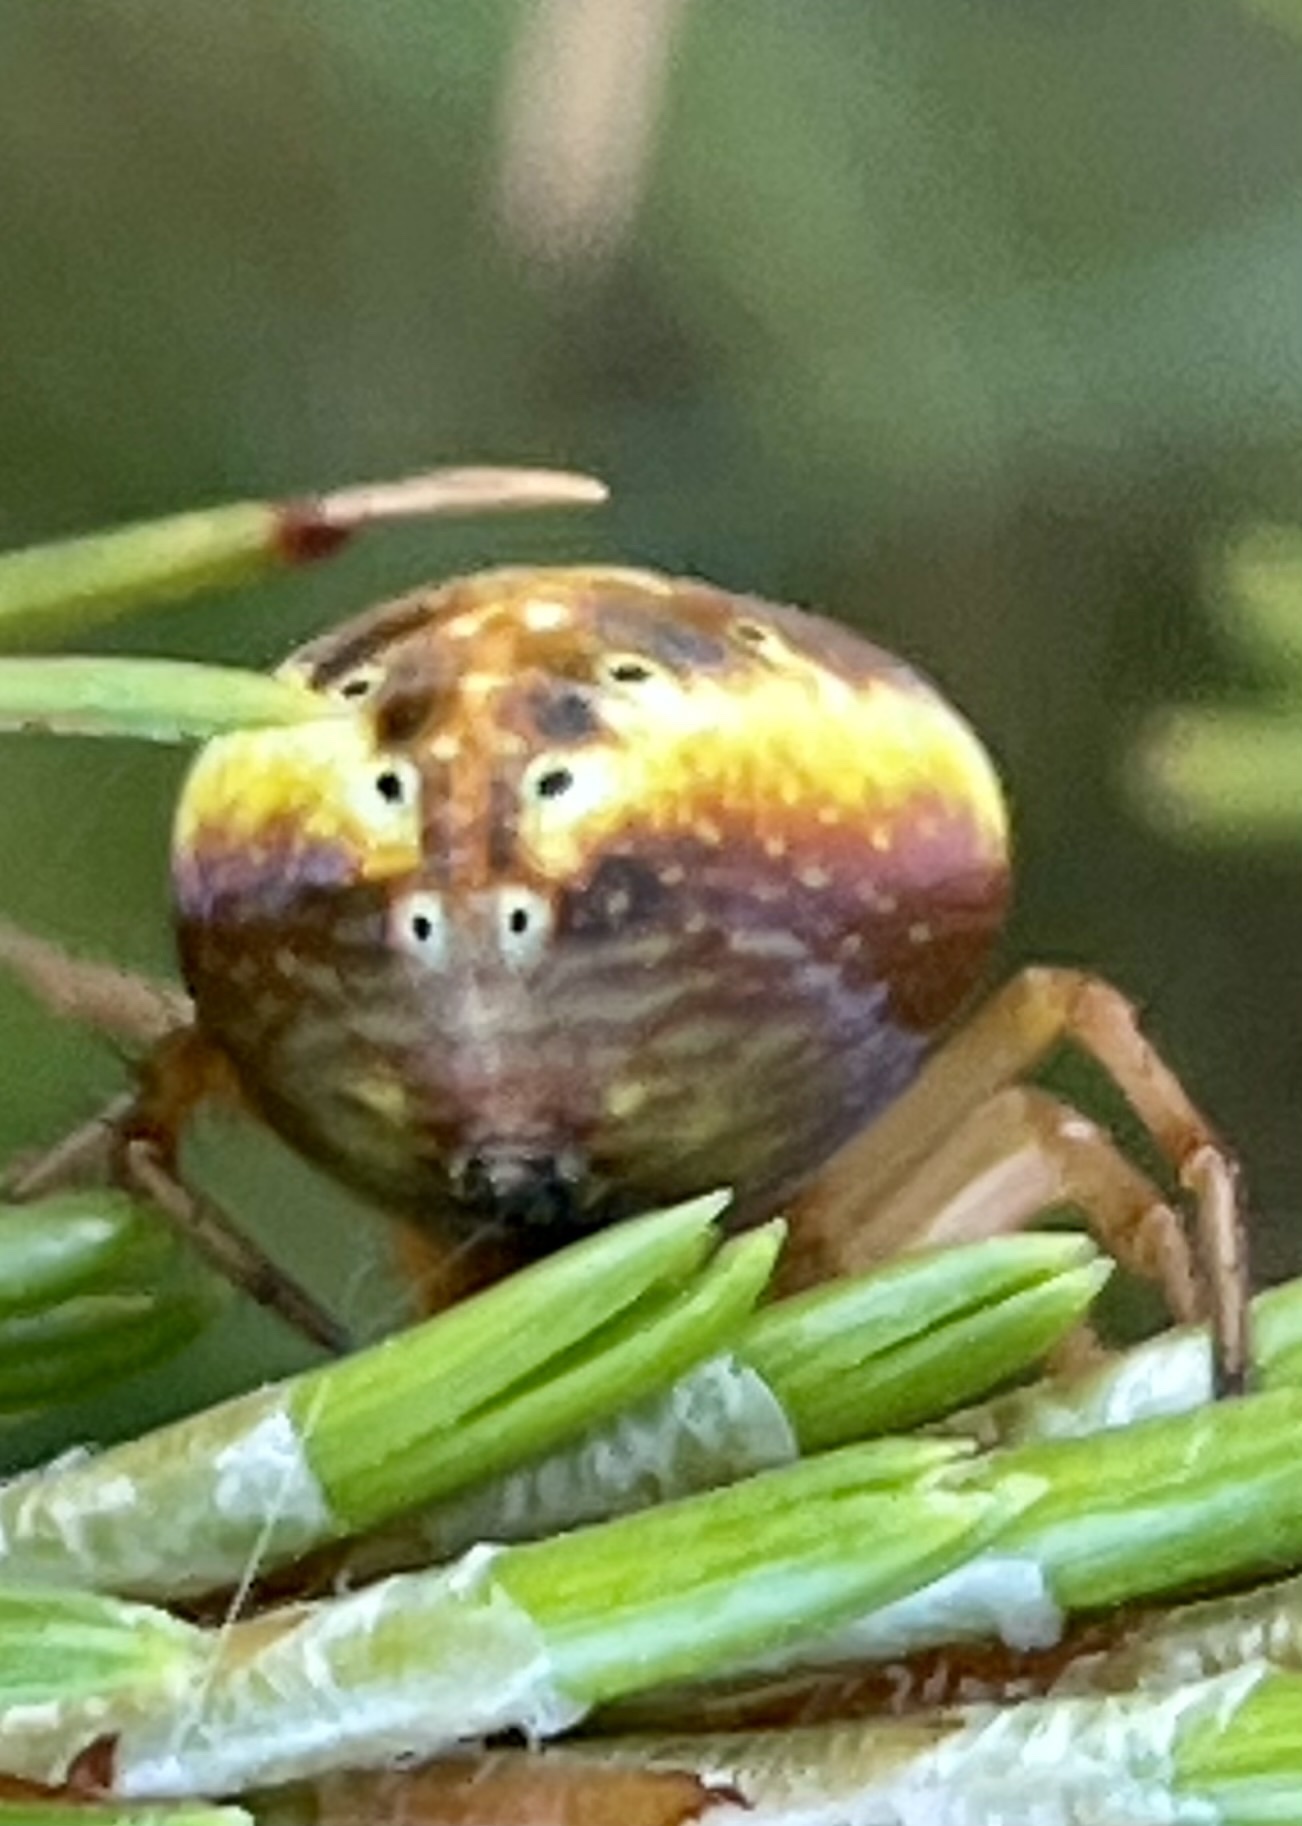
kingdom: Animalia
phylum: Arthropoda
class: Arachnida
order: Araneae
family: Araneidae
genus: Araniella
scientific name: Araniella displicata
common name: Sixspotted orb weaver
